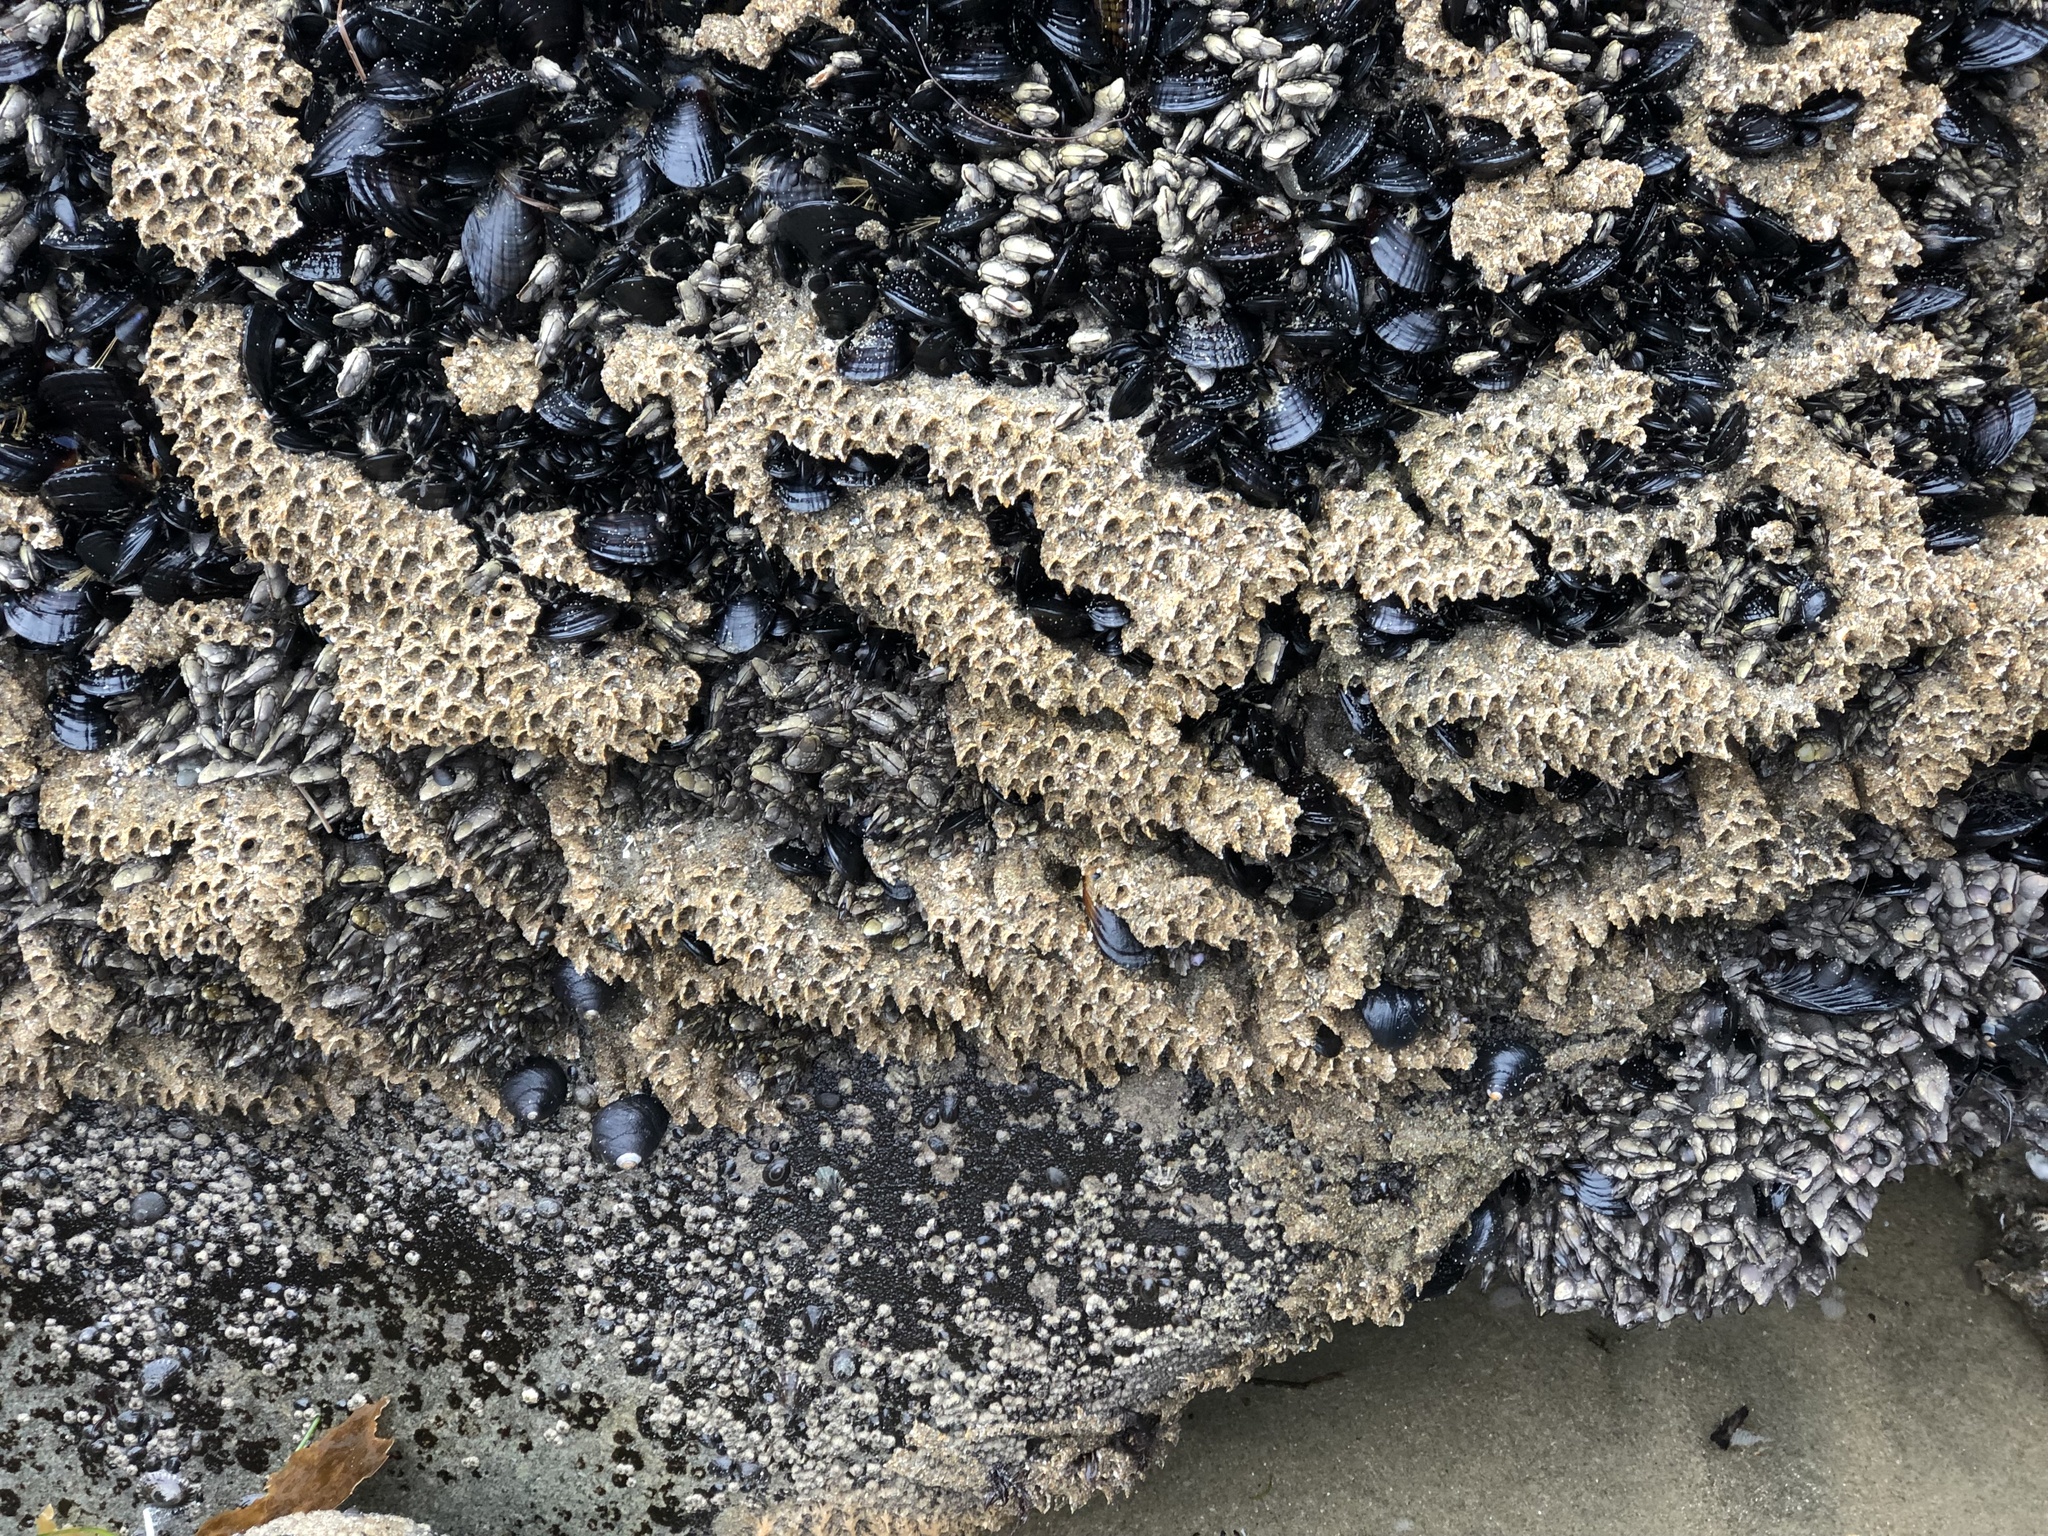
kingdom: Animalia
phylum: Annelida
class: Polychaeta
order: Sabellida
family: Sabellariidae
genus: Phragmatopoma
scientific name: Phragmatopoma californica
